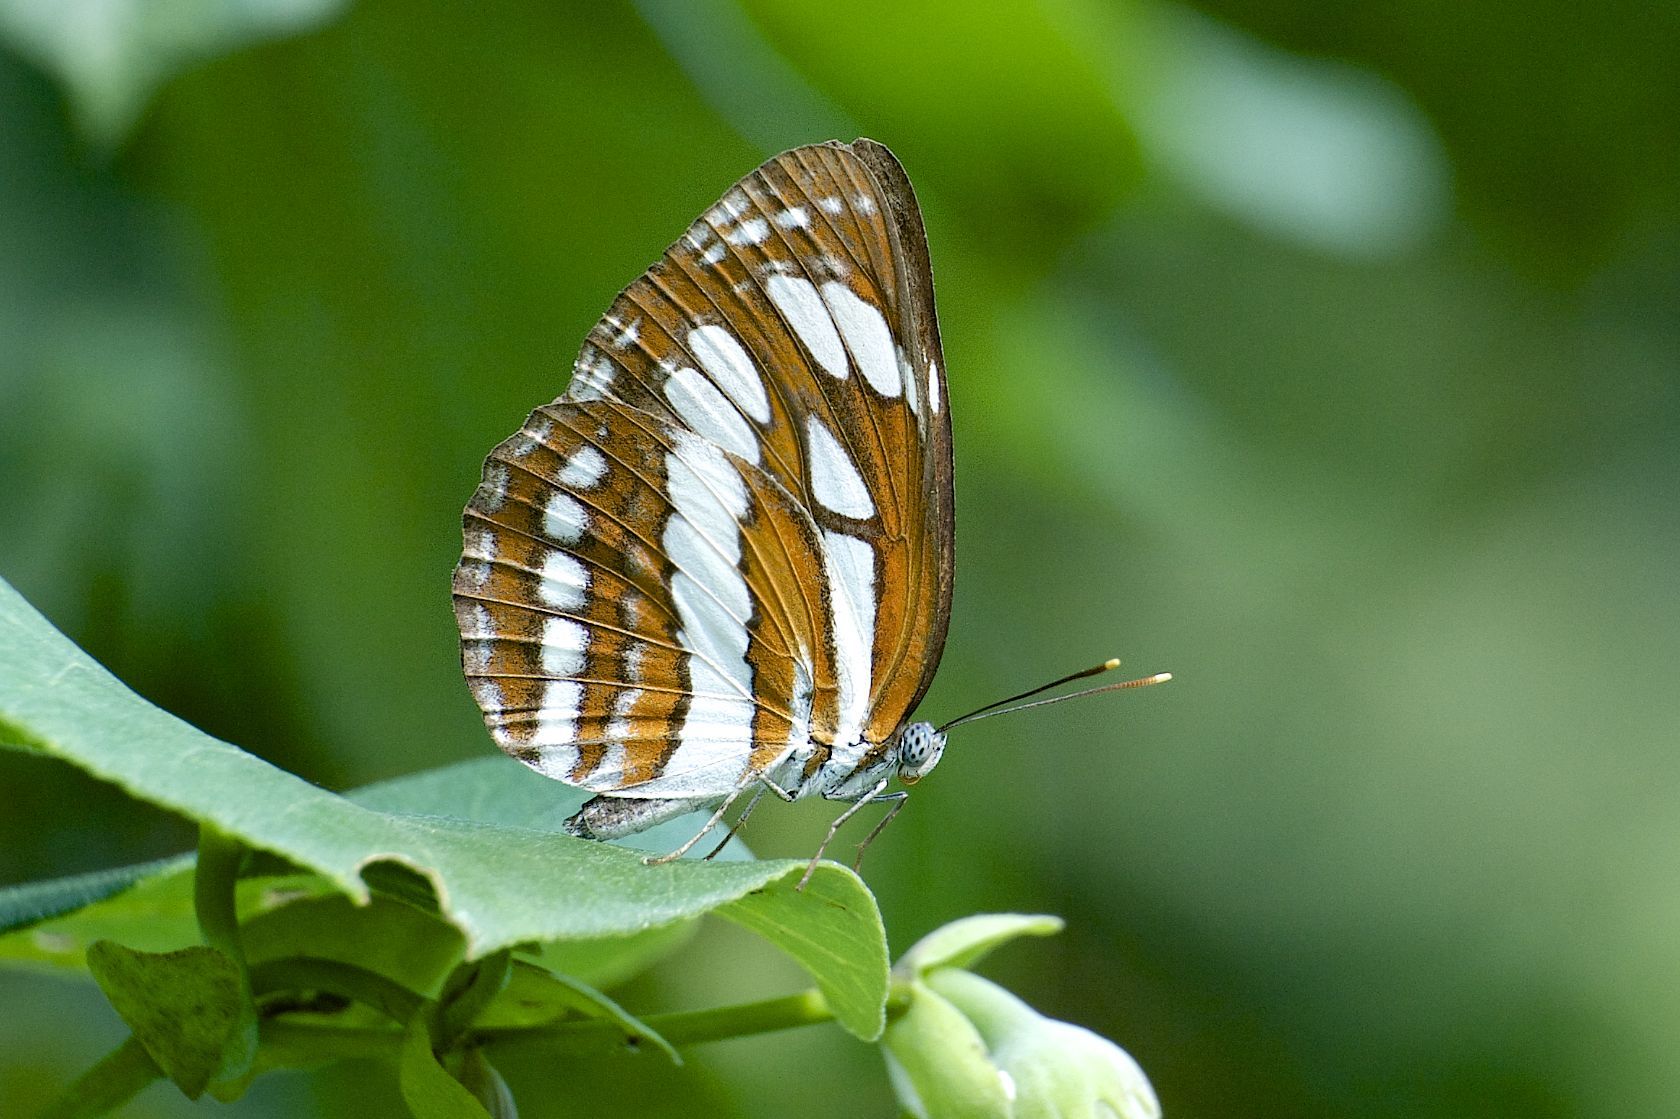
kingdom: Animalia
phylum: Arthropoda
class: Insecta
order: Lepidoptera
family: Nymphalidae
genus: Neptis
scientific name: Neptis hylas
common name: Common sailer
